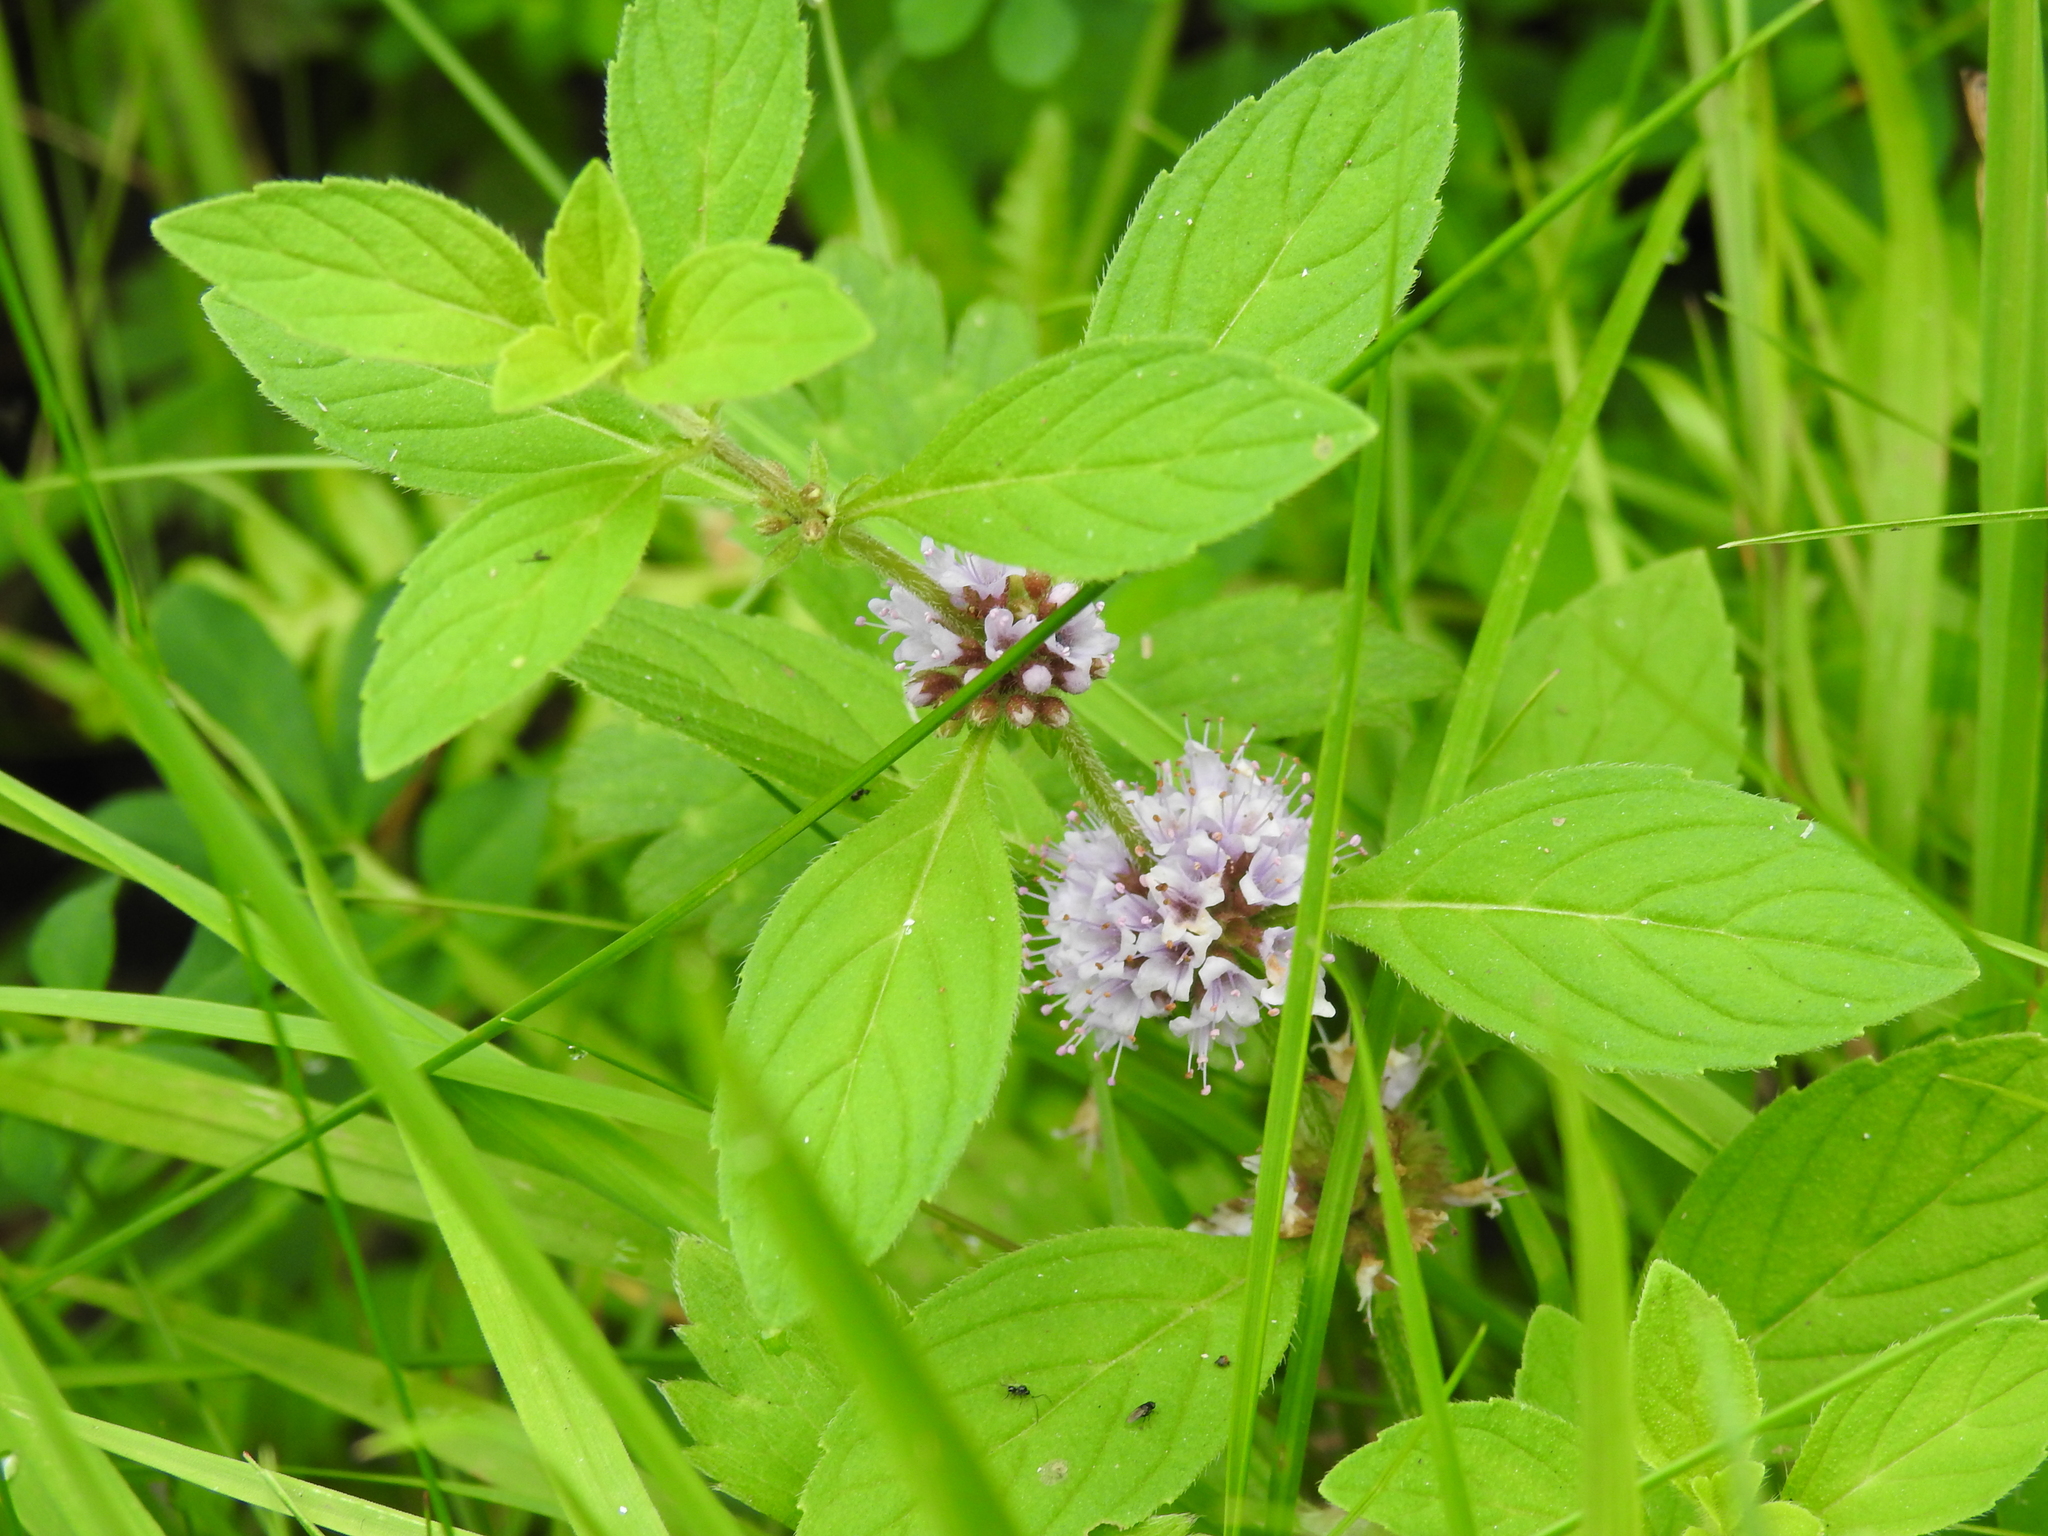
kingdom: Plantae
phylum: Tracheophyta
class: Magnoliopsida
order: Lamiales
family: Lamiaceae
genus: Mentha
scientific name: Mentha arvensis
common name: Corn mint
